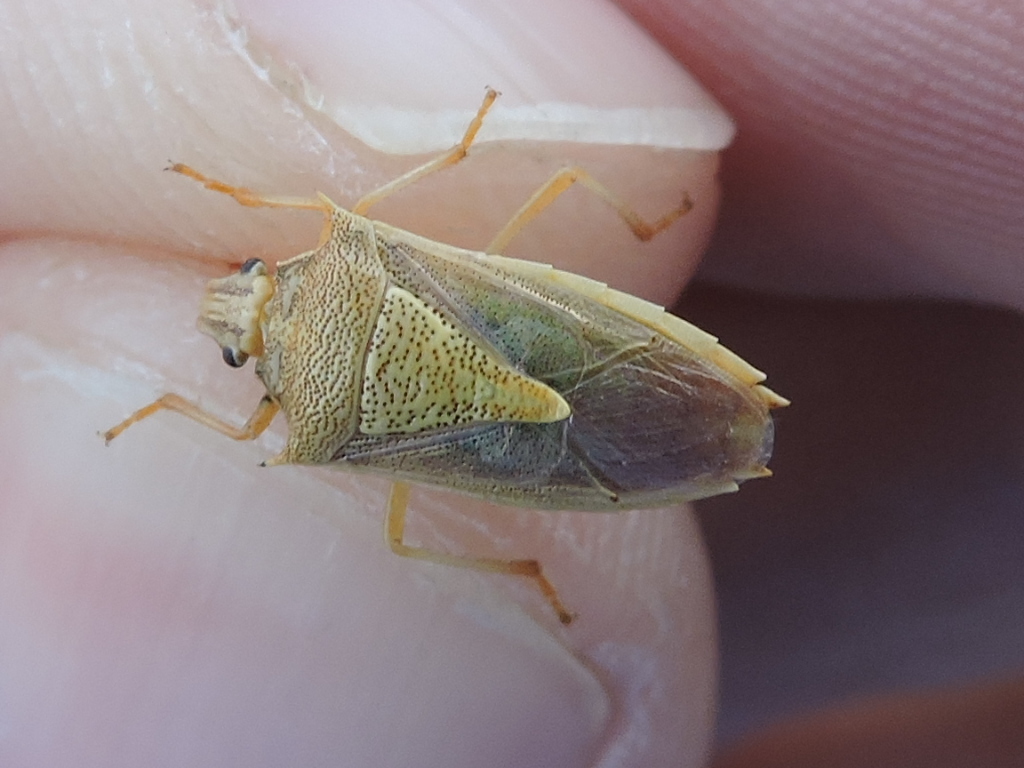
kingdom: Animalia
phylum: Arthropoda
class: Insecta
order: Hemiptera
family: Pentatomidae
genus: Oebalus
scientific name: Oebalus pugnax
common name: Rice stink bug
